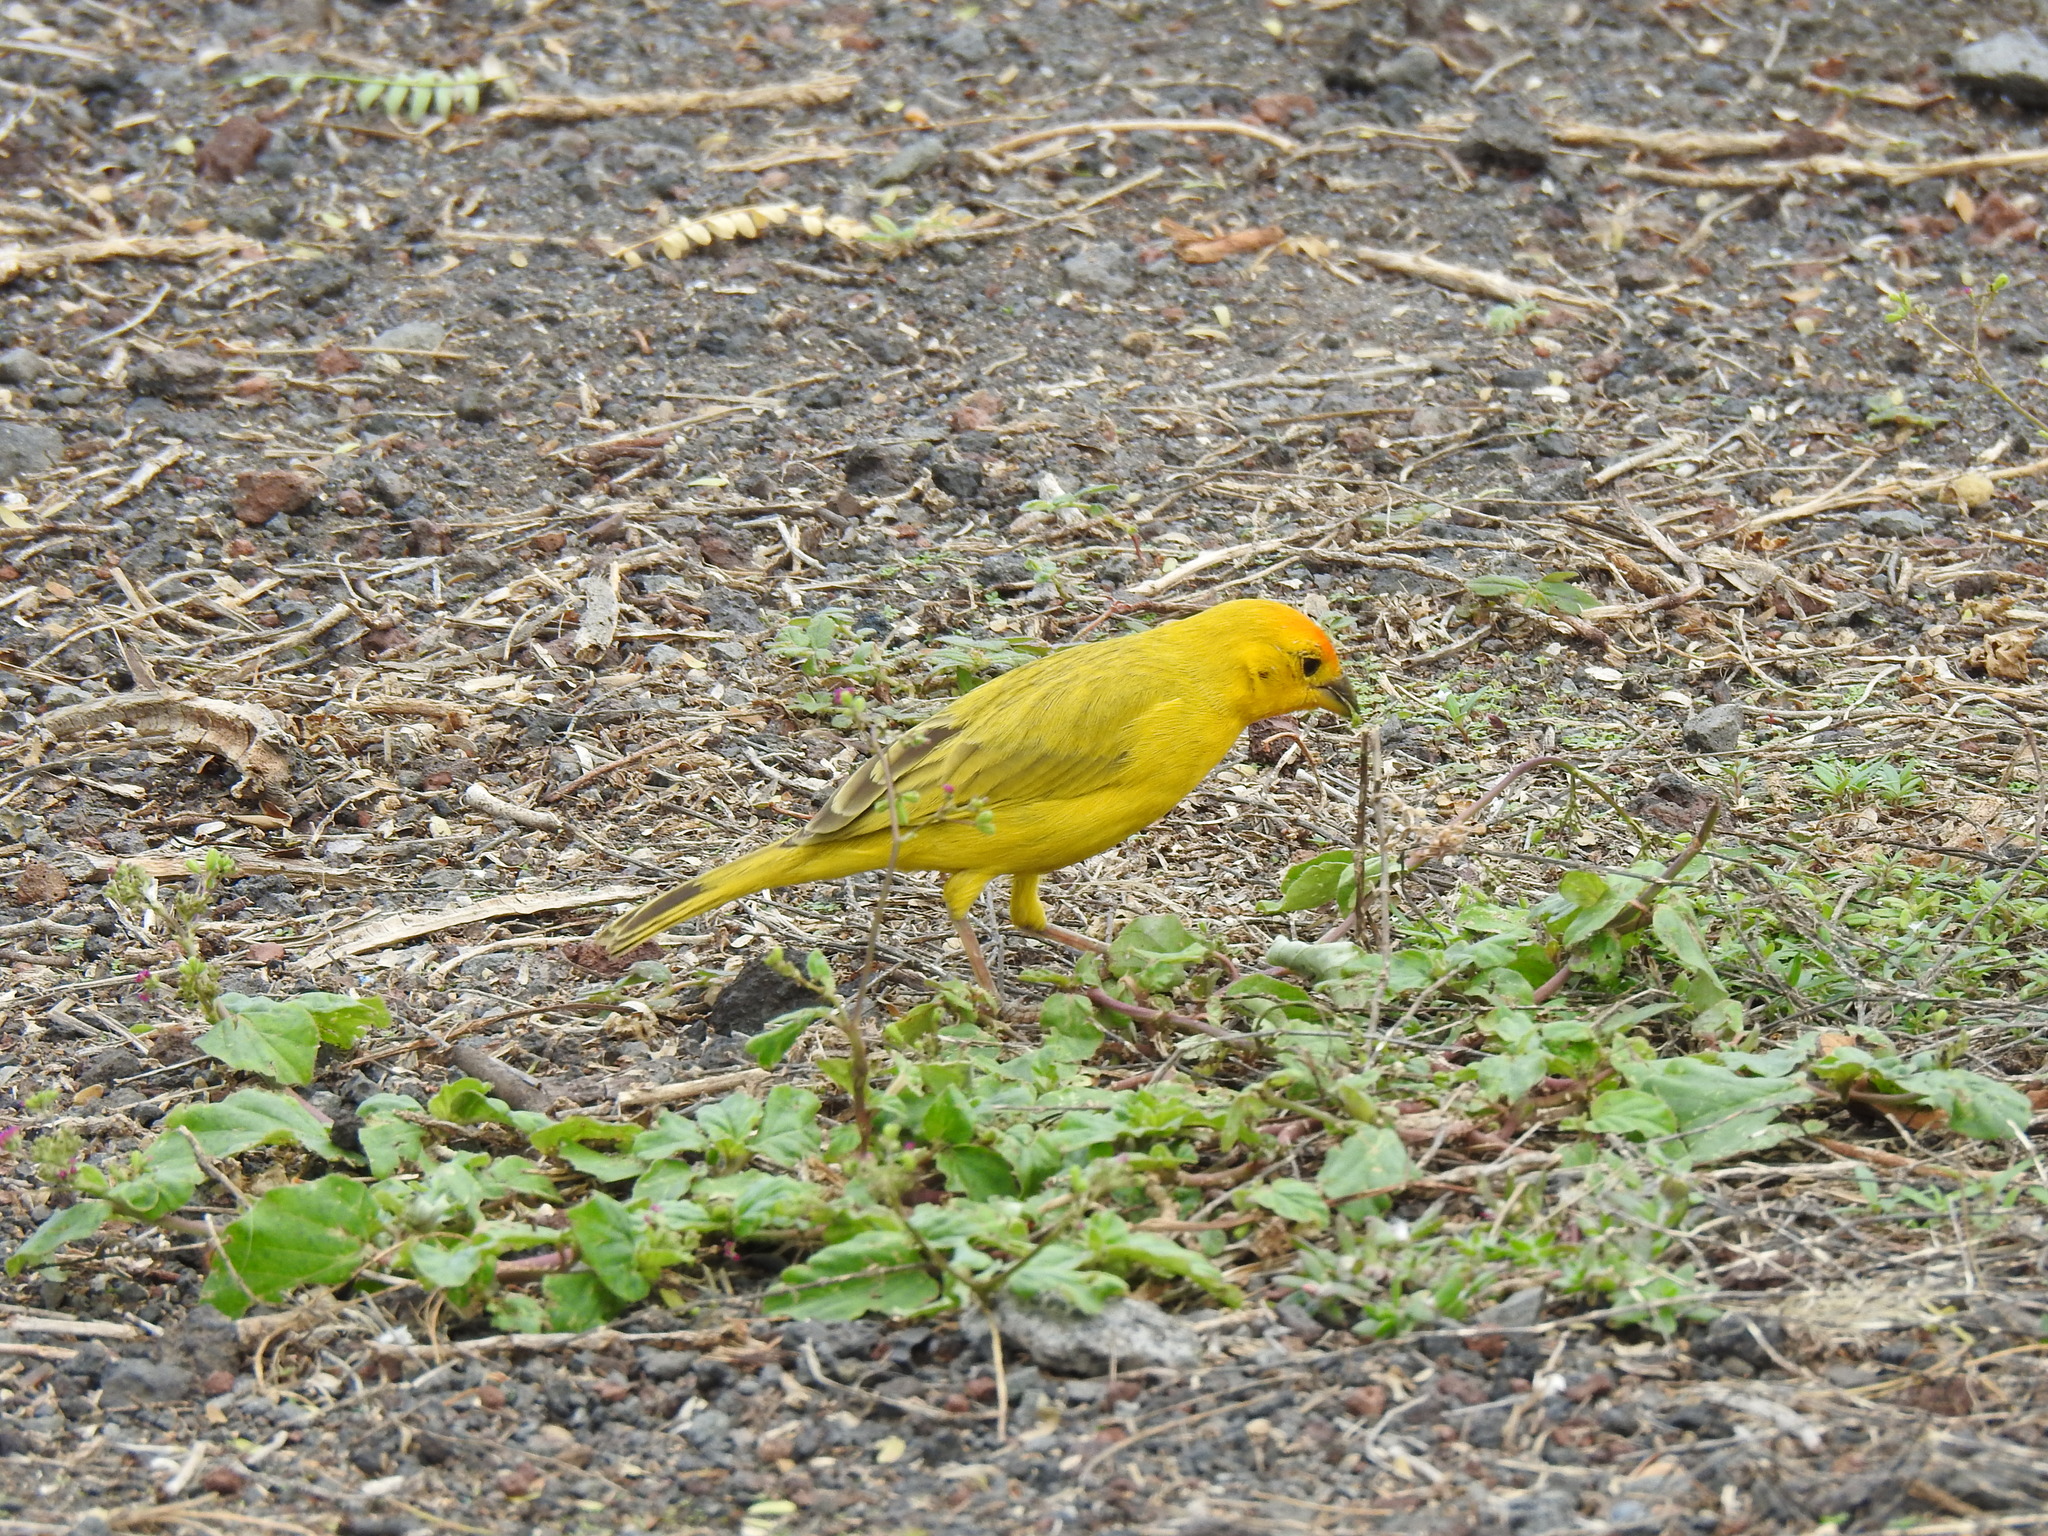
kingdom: Animalia
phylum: Chordata
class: Aves
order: Passeriformes
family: Thraupidae
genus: Sicalis
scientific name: Sicalis flaveola
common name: Saffron finch
